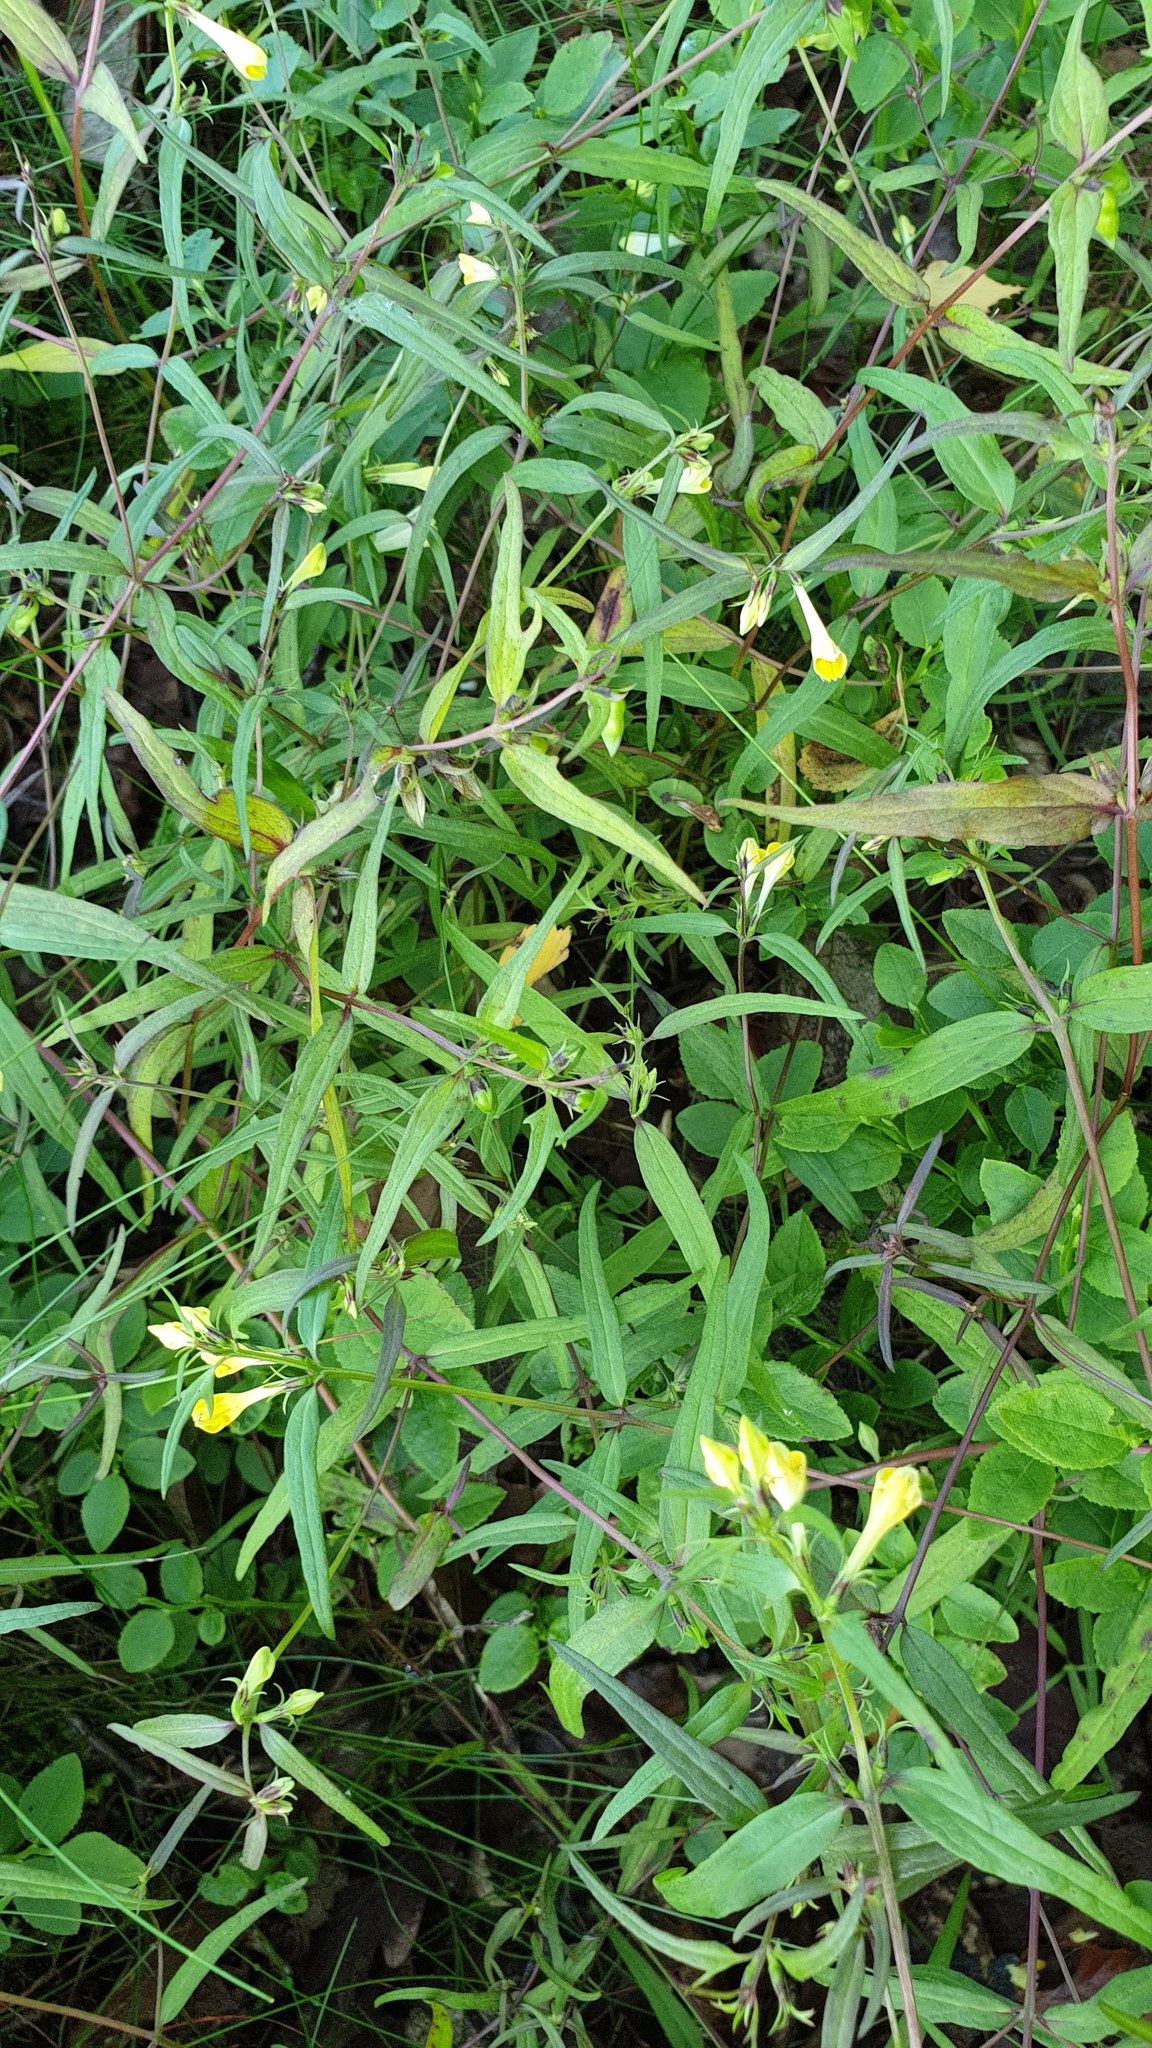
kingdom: Plantae
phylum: Tracheophyta
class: Magnoliopsida
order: Lamiales
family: Orobanchaceae
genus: Melampyrum
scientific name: Melampyrum pratense
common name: Common cow-wheat
